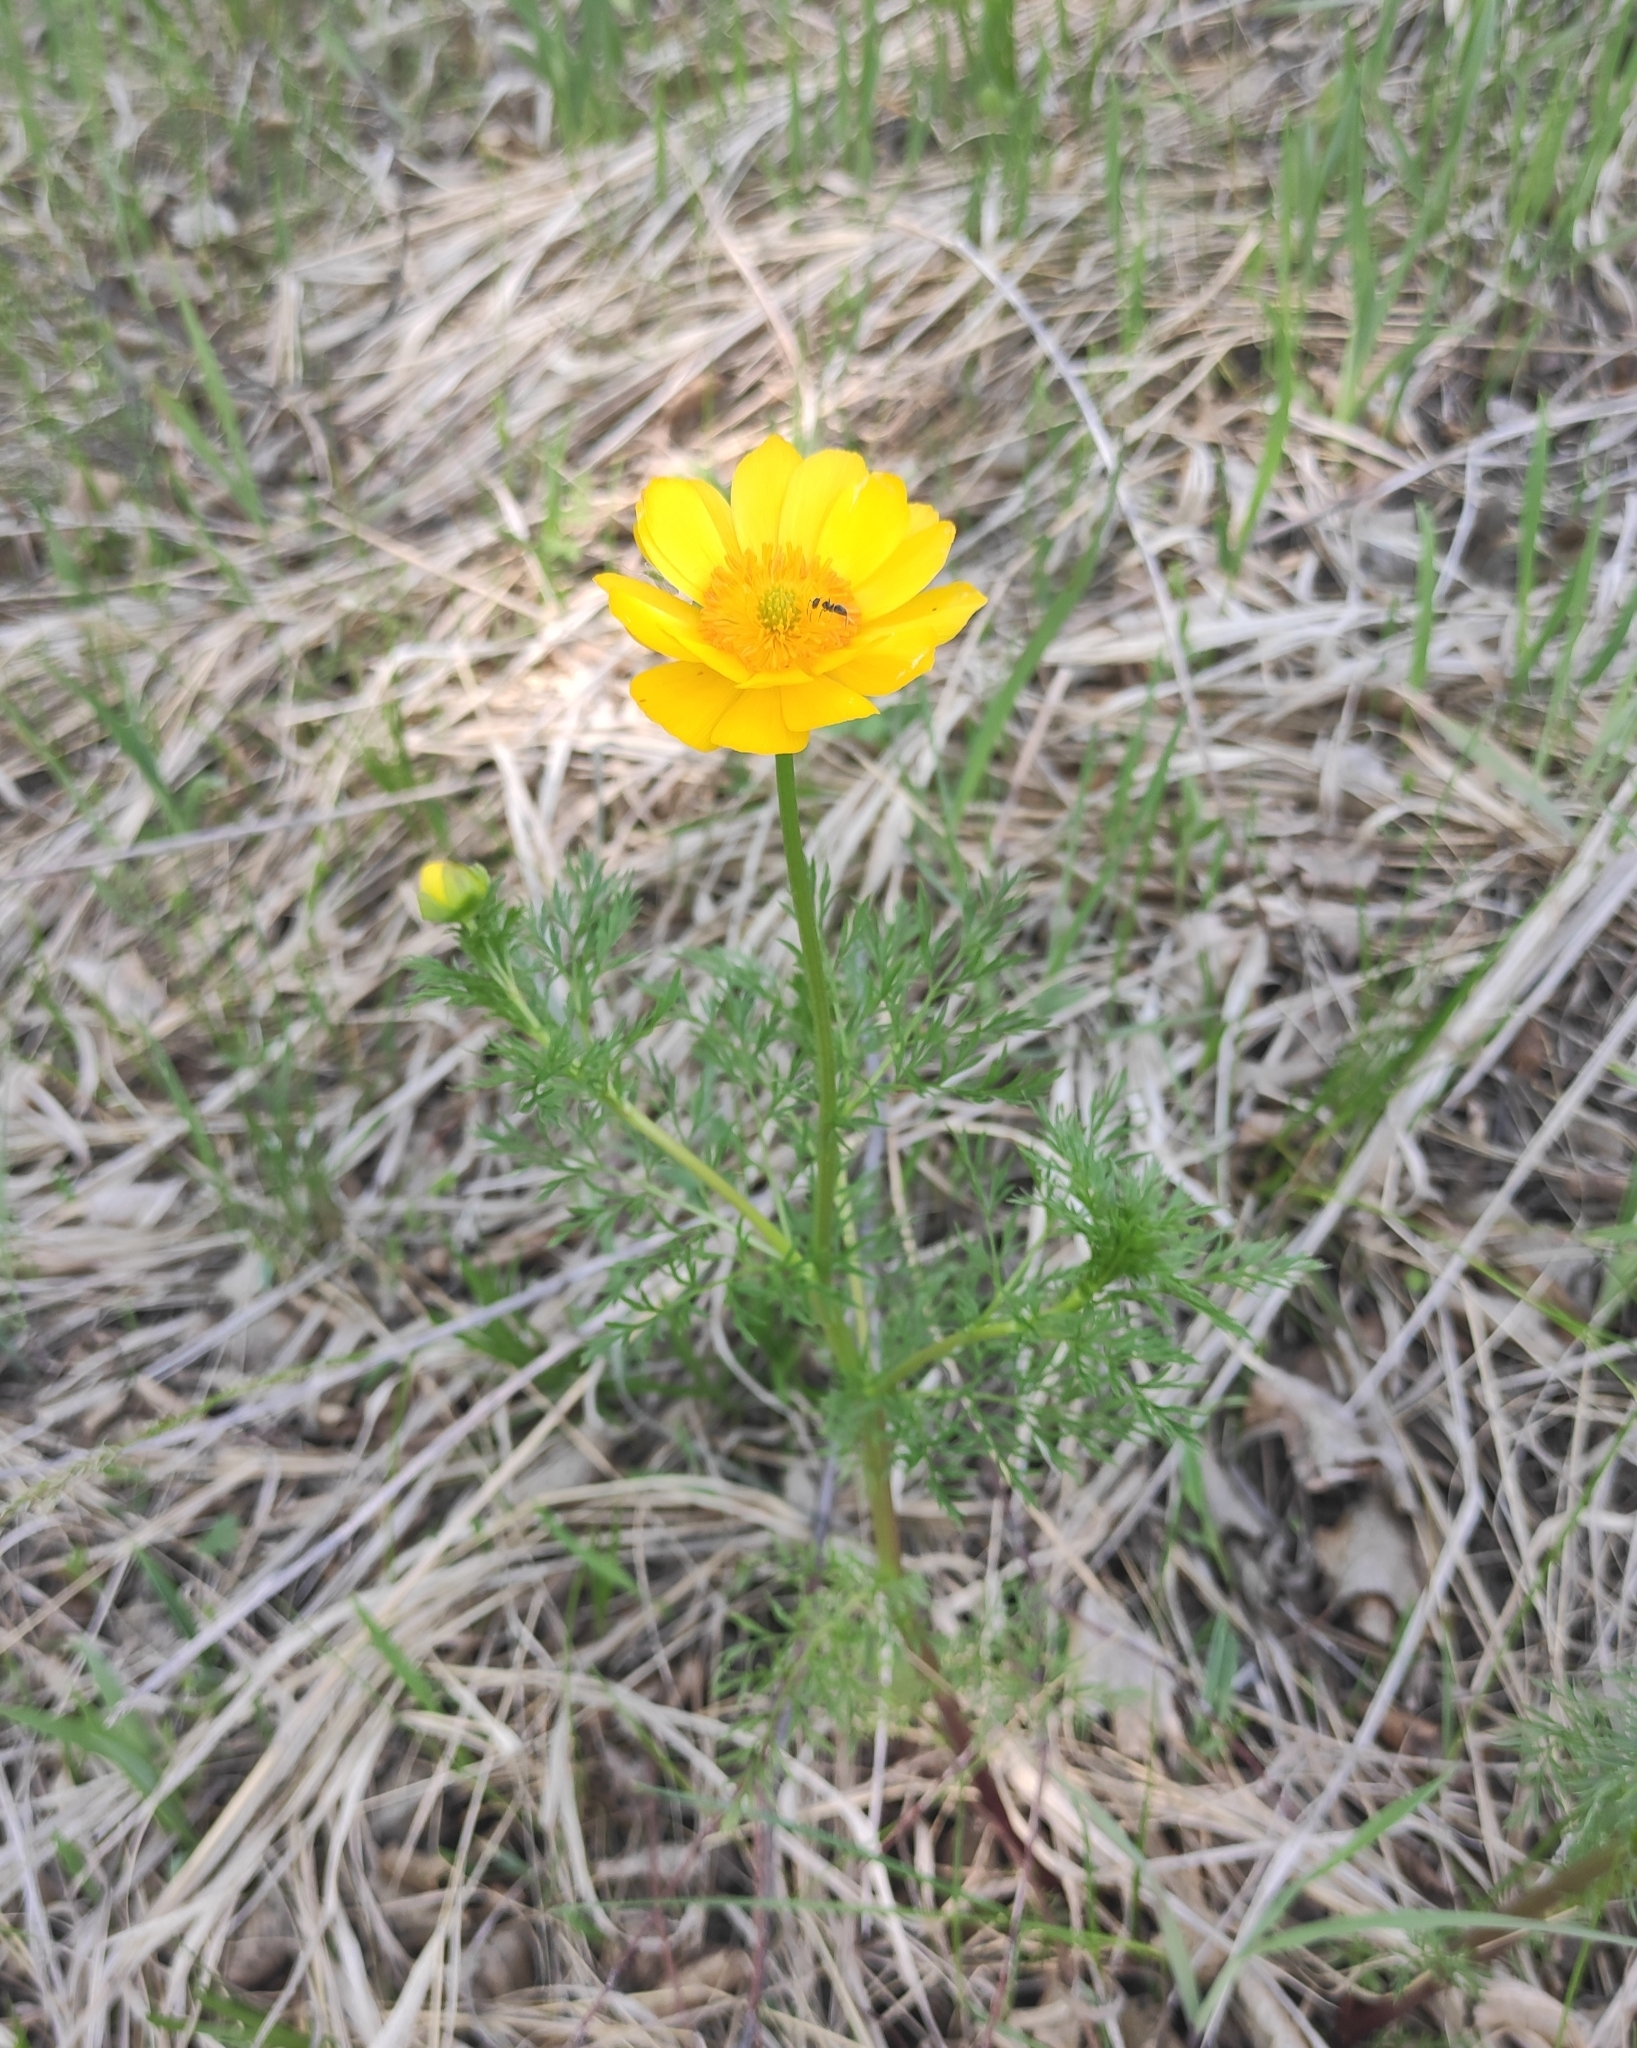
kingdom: Plantae
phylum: Tracheophyta
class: Magnoliopsida
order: Ranunculales
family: Ranunculaceae
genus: Adonis
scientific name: Adonis
